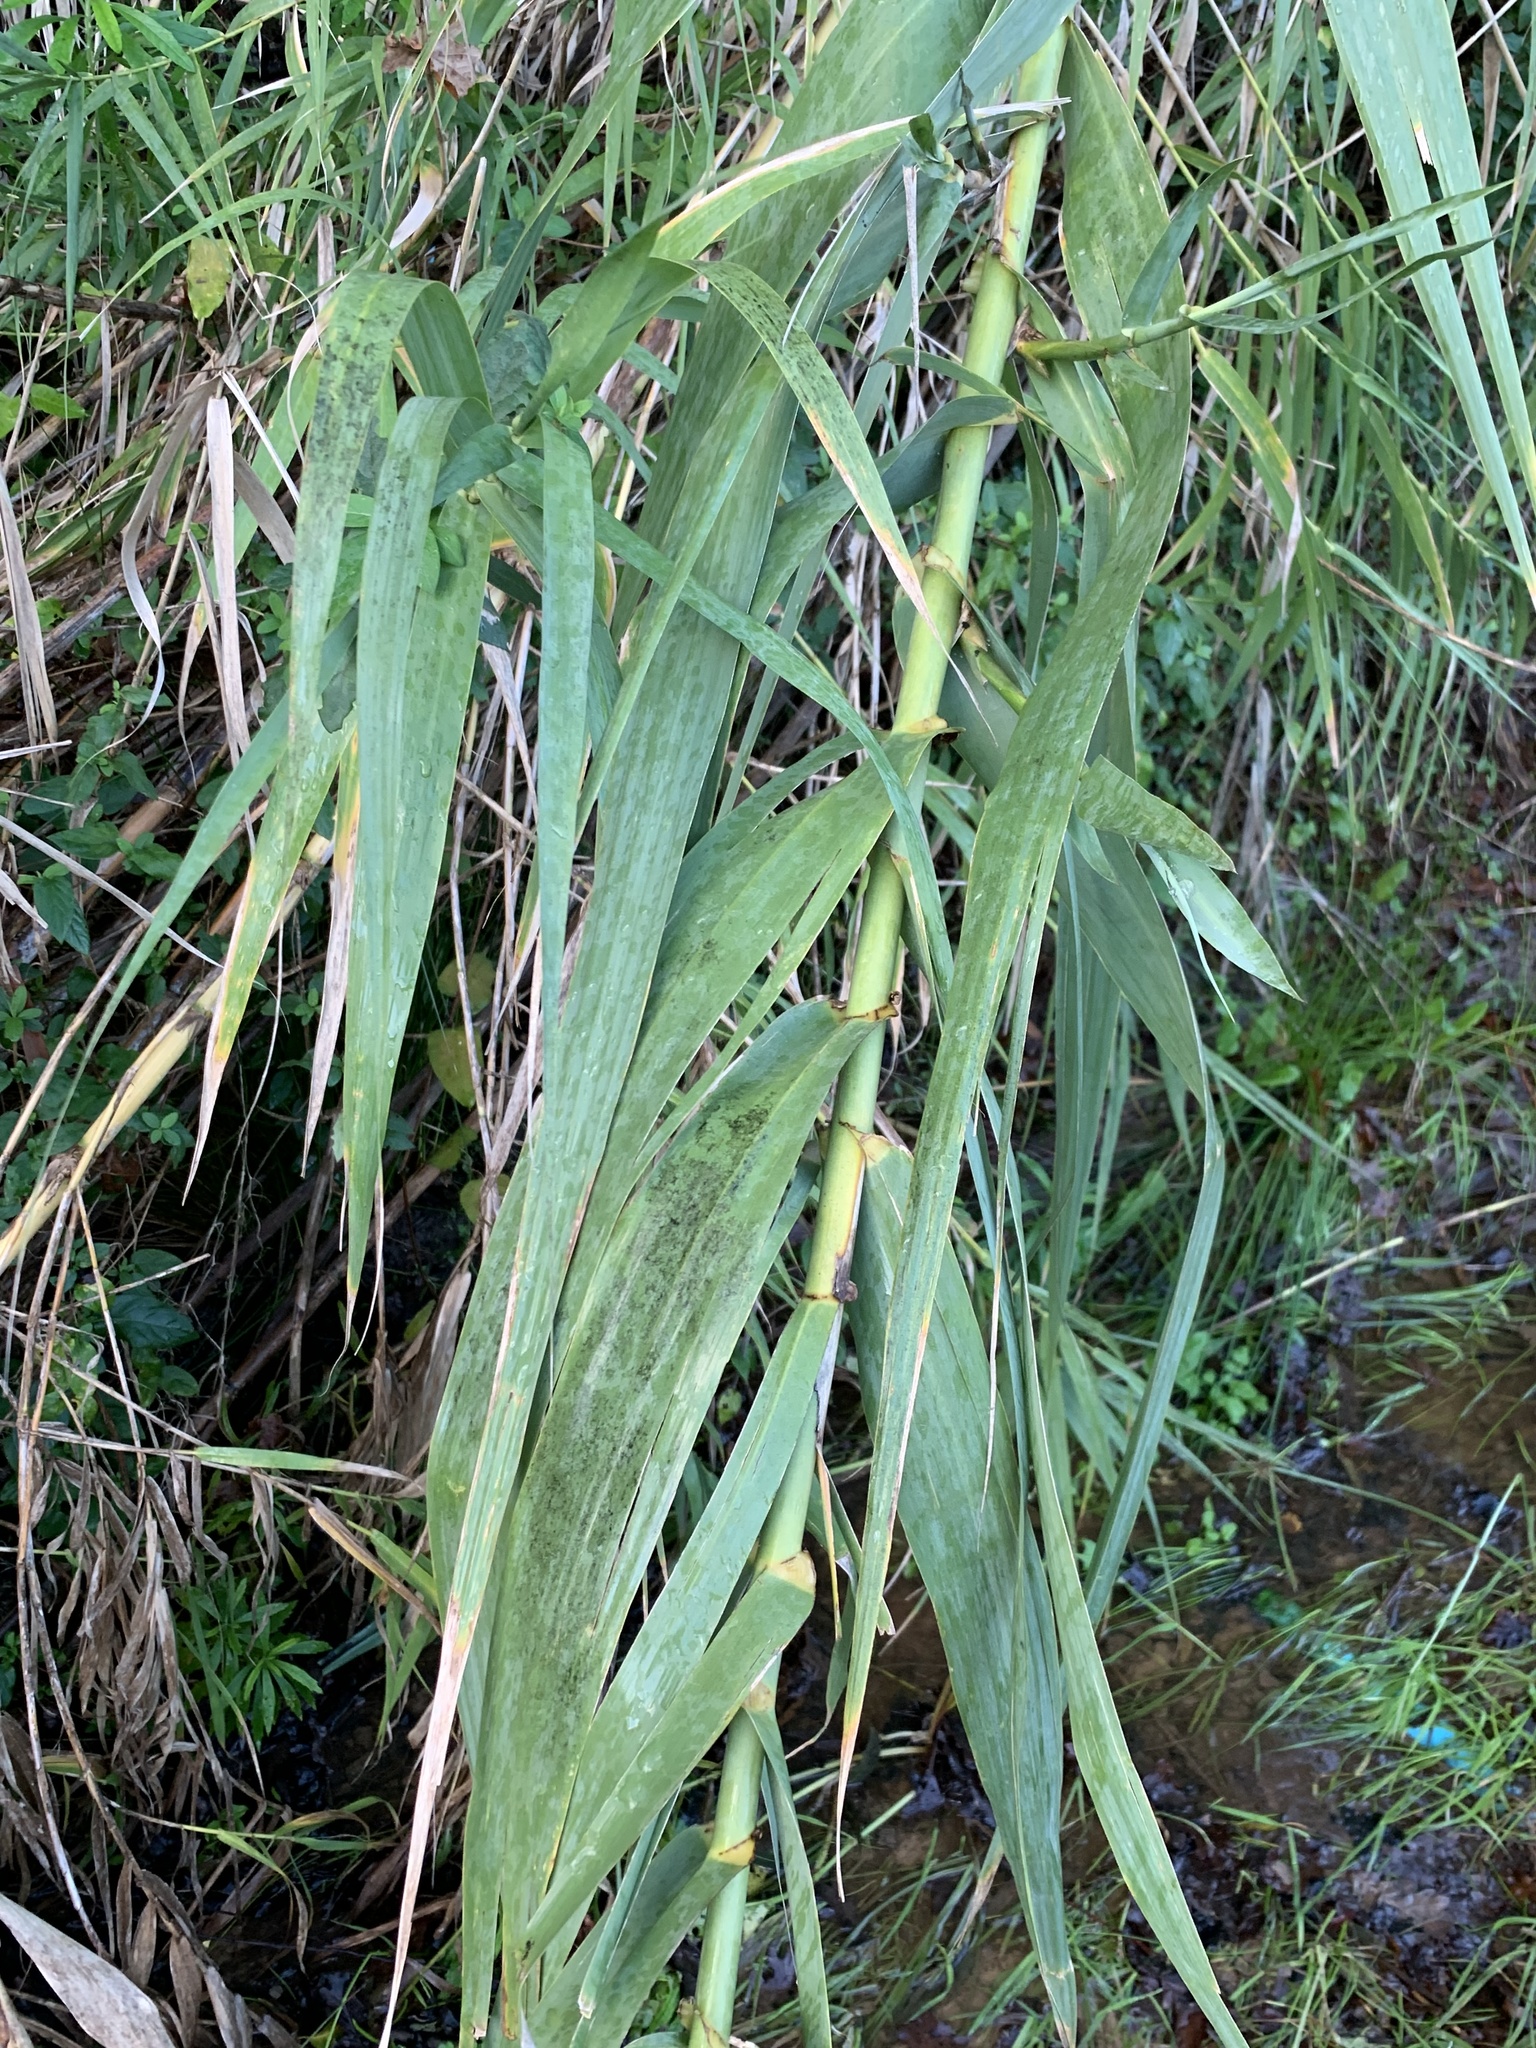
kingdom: Plantae
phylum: Tracheophyta
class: Liliopsida
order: Poales
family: Poaceae
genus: Arundo
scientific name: Arundo donax
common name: Giant reed
